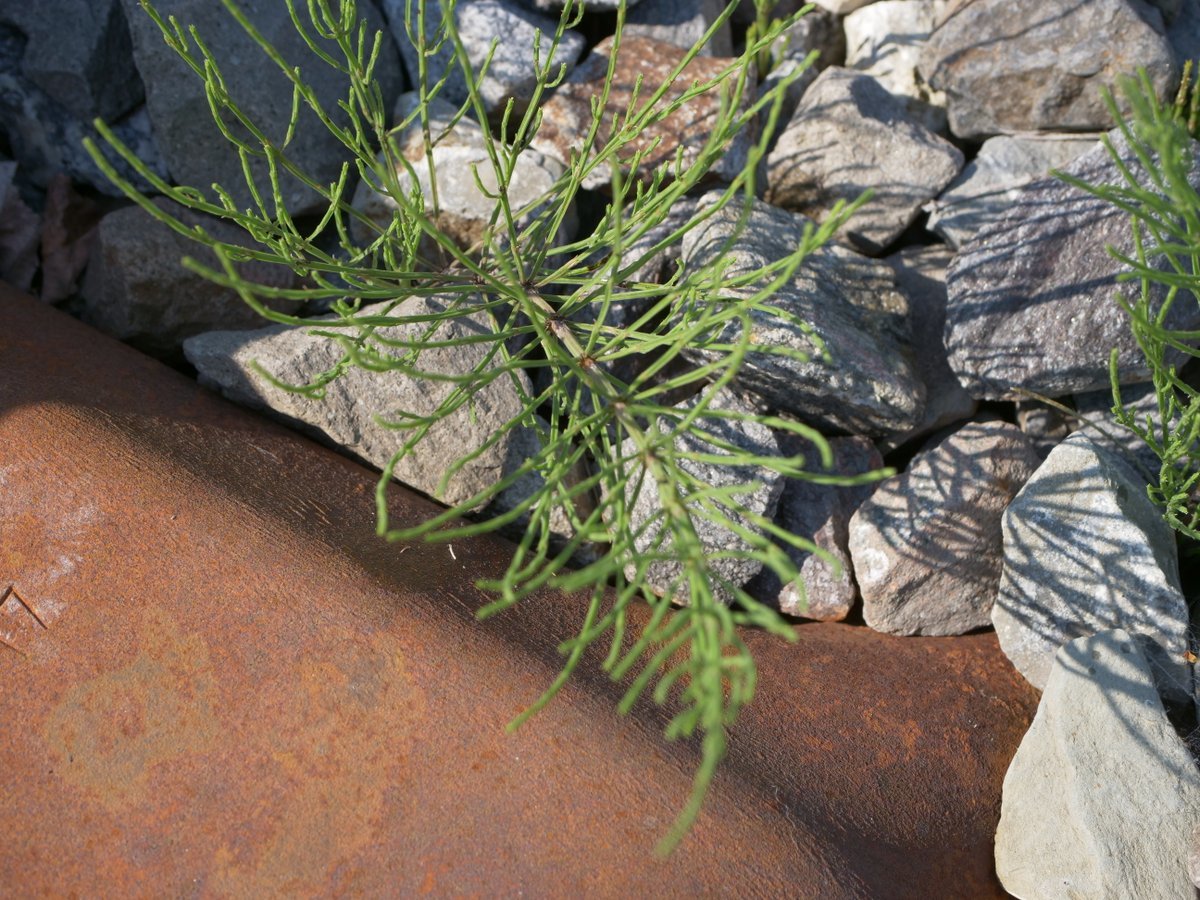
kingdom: Plantae
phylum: Tracheophyta
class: Polypodiopsida
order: Equisetales
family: Equisetaceae
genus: Equisetum
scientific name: Equisetum arvense
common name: Field horsetail
